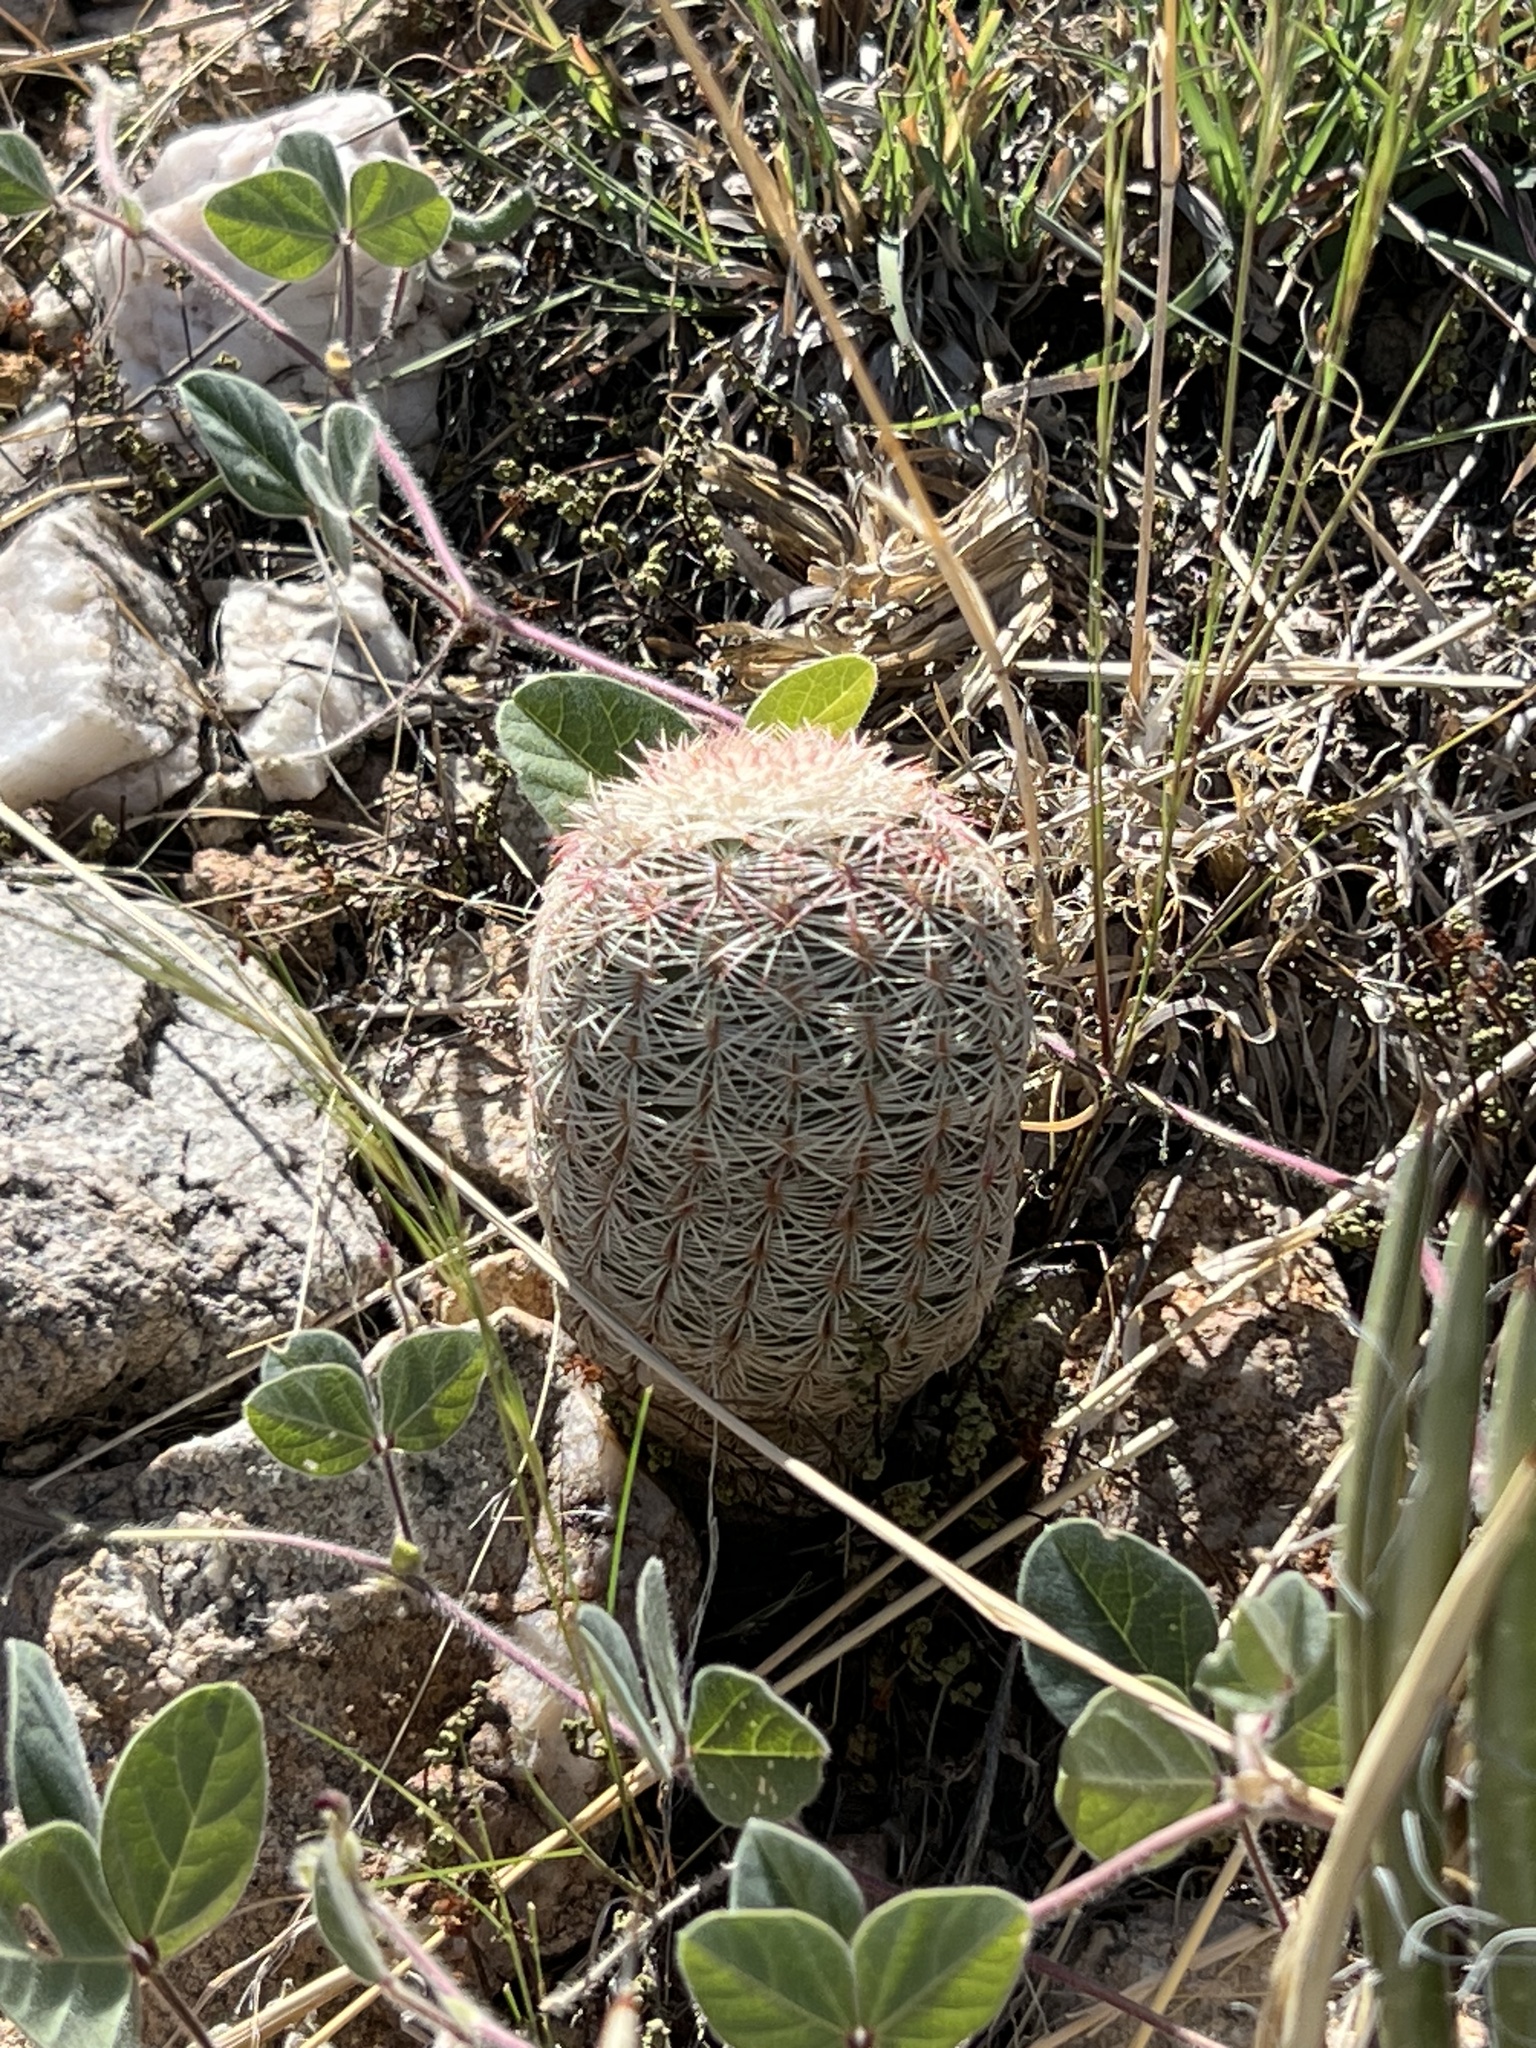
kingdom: Plantae
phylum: Tracheophyta
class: Magnoliopsida
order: Caryophyllales
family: Cactaceae
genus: Echinocereus
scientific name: Echinocereus rigidissimus
